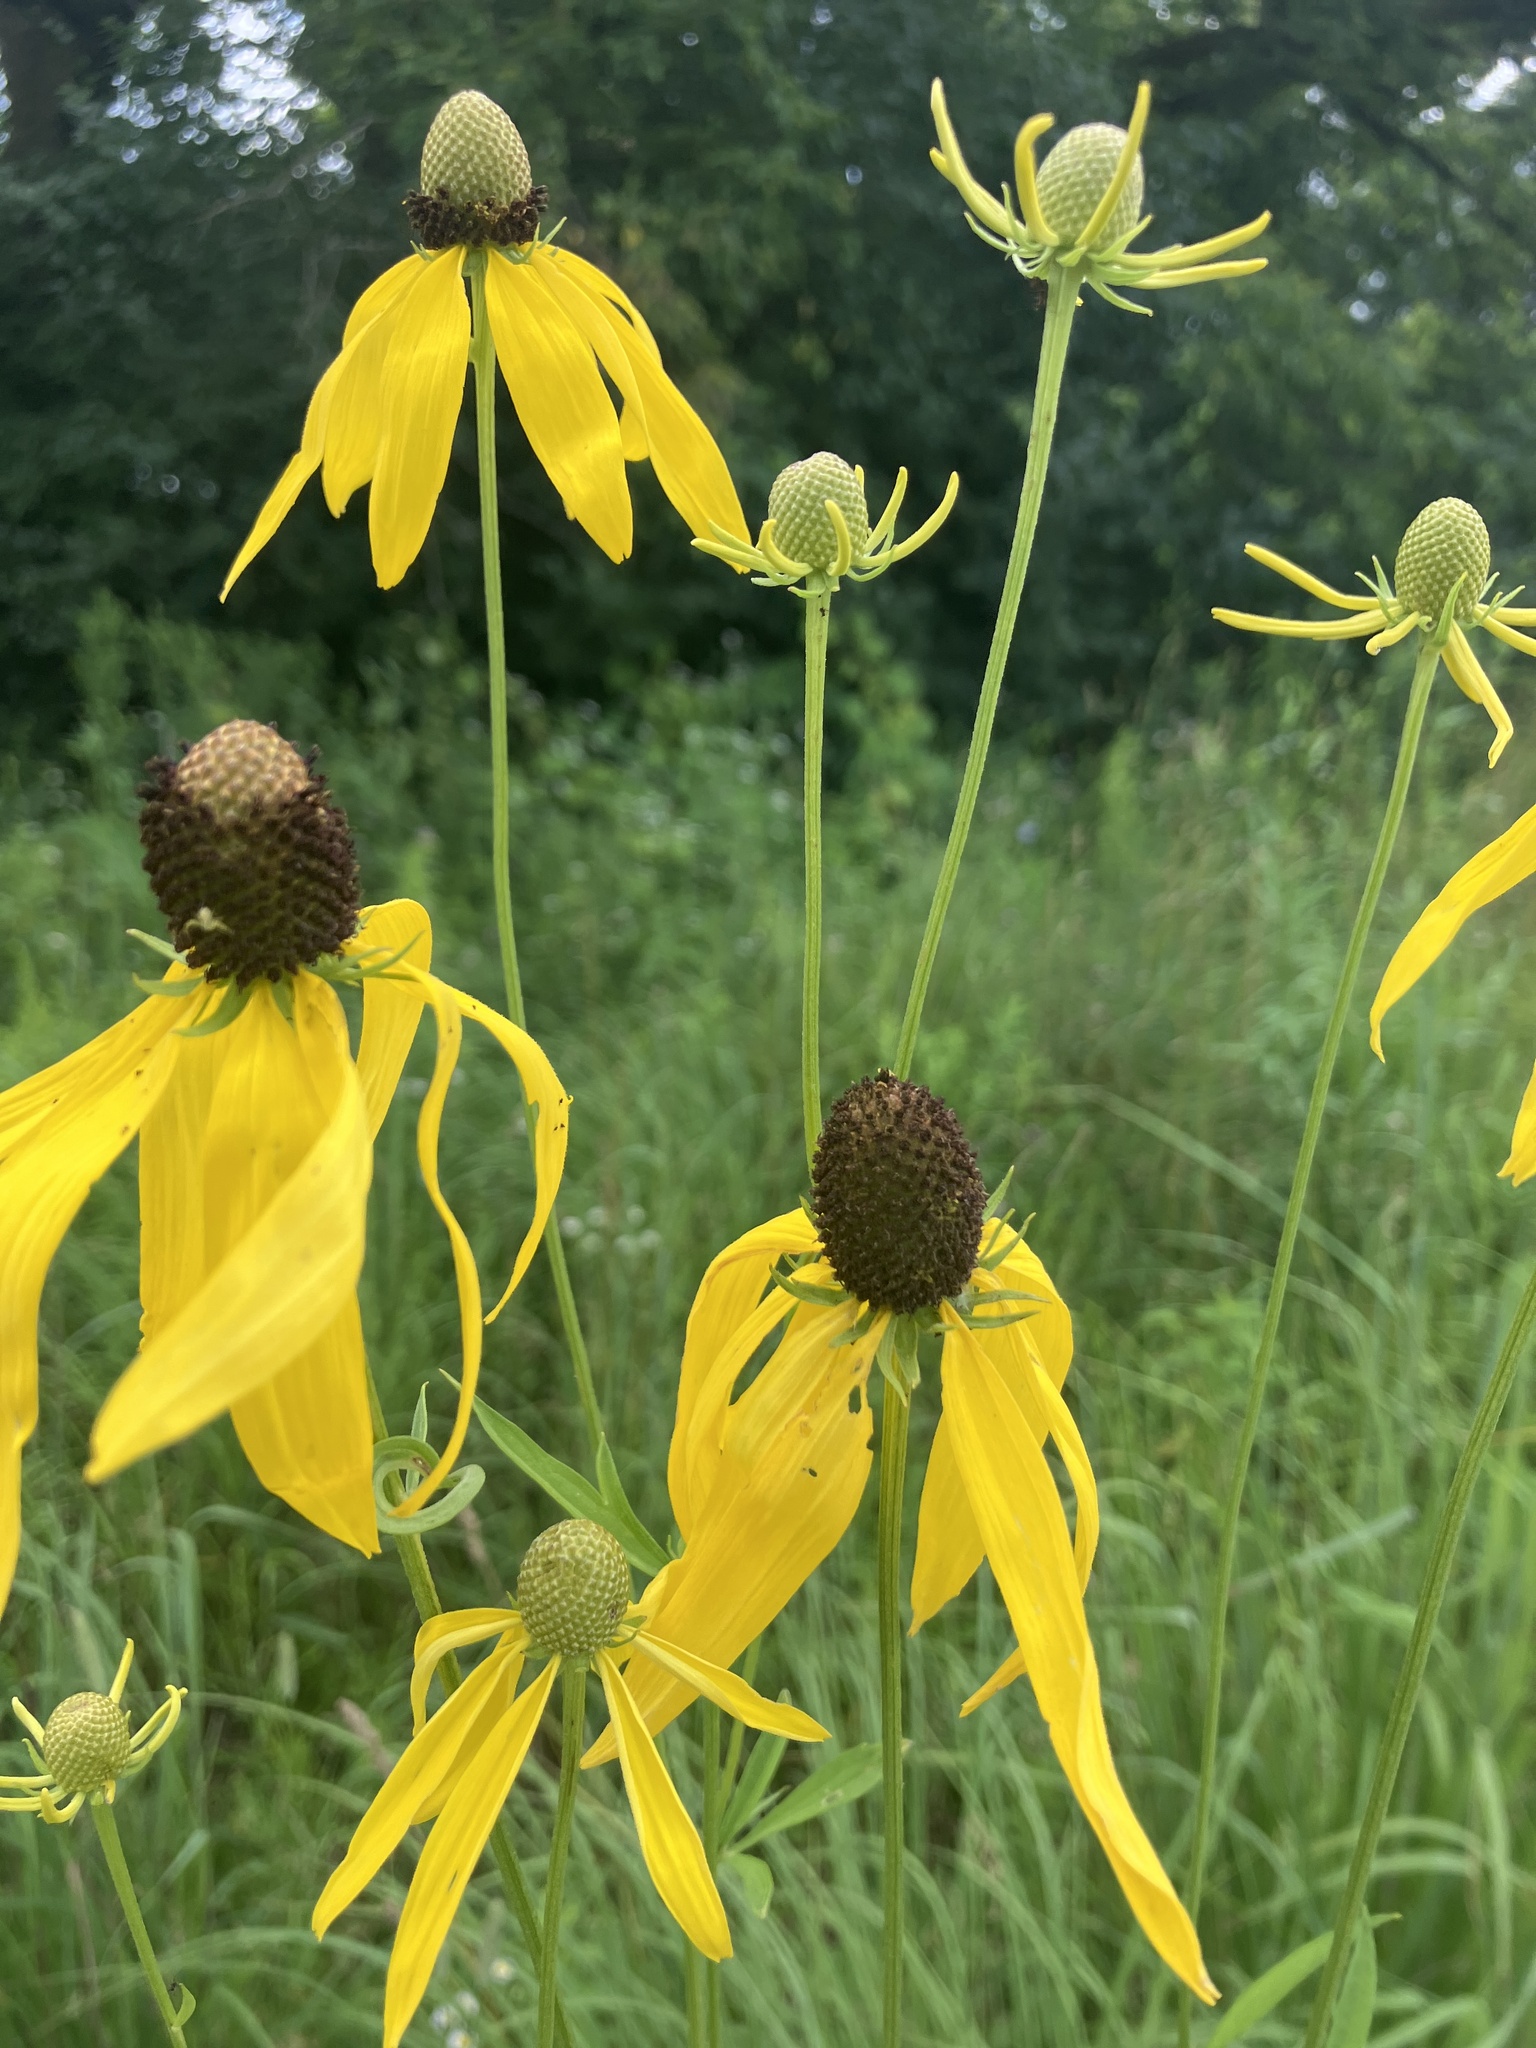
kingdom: Plantae
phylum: Tracheophyta
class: Magnoliopsida
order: Asterales
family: Asteraceae
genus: Ratibida
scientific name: Ratibida pinnata
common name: Drooping prairie-coneflower
